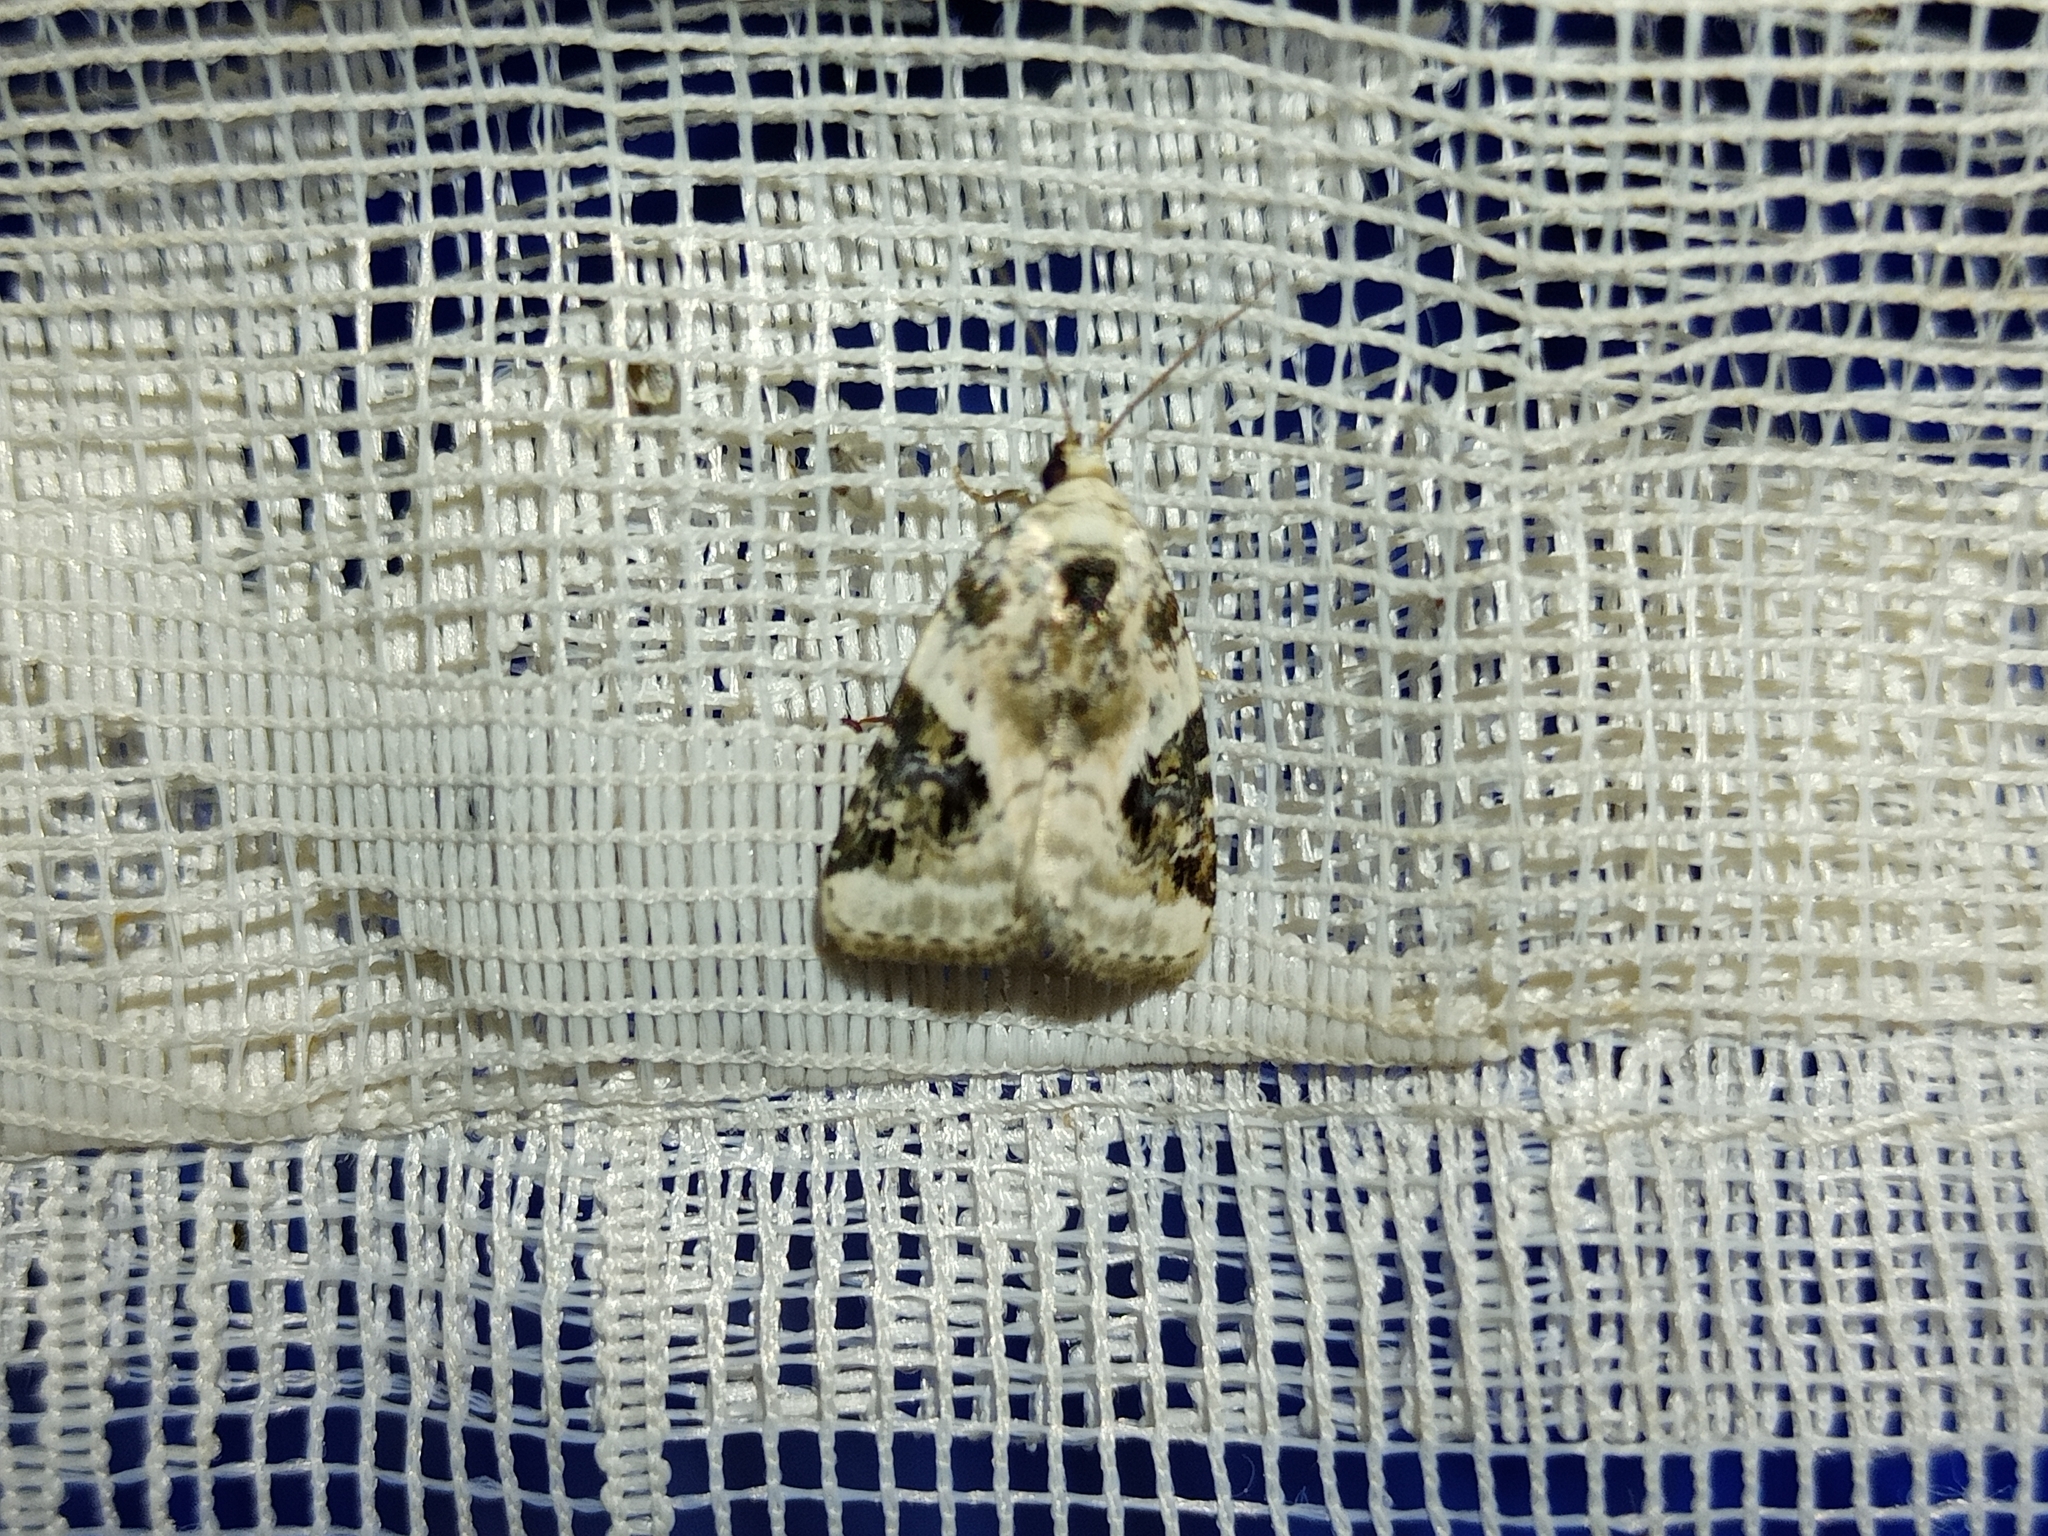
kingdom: Animalia
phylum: Arthropoda
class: Insecta
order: Lepidoptera
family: Noctuidae
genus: Pseudeustrotia
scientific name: Pseudeustrotia candidula
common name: Shining marbled
